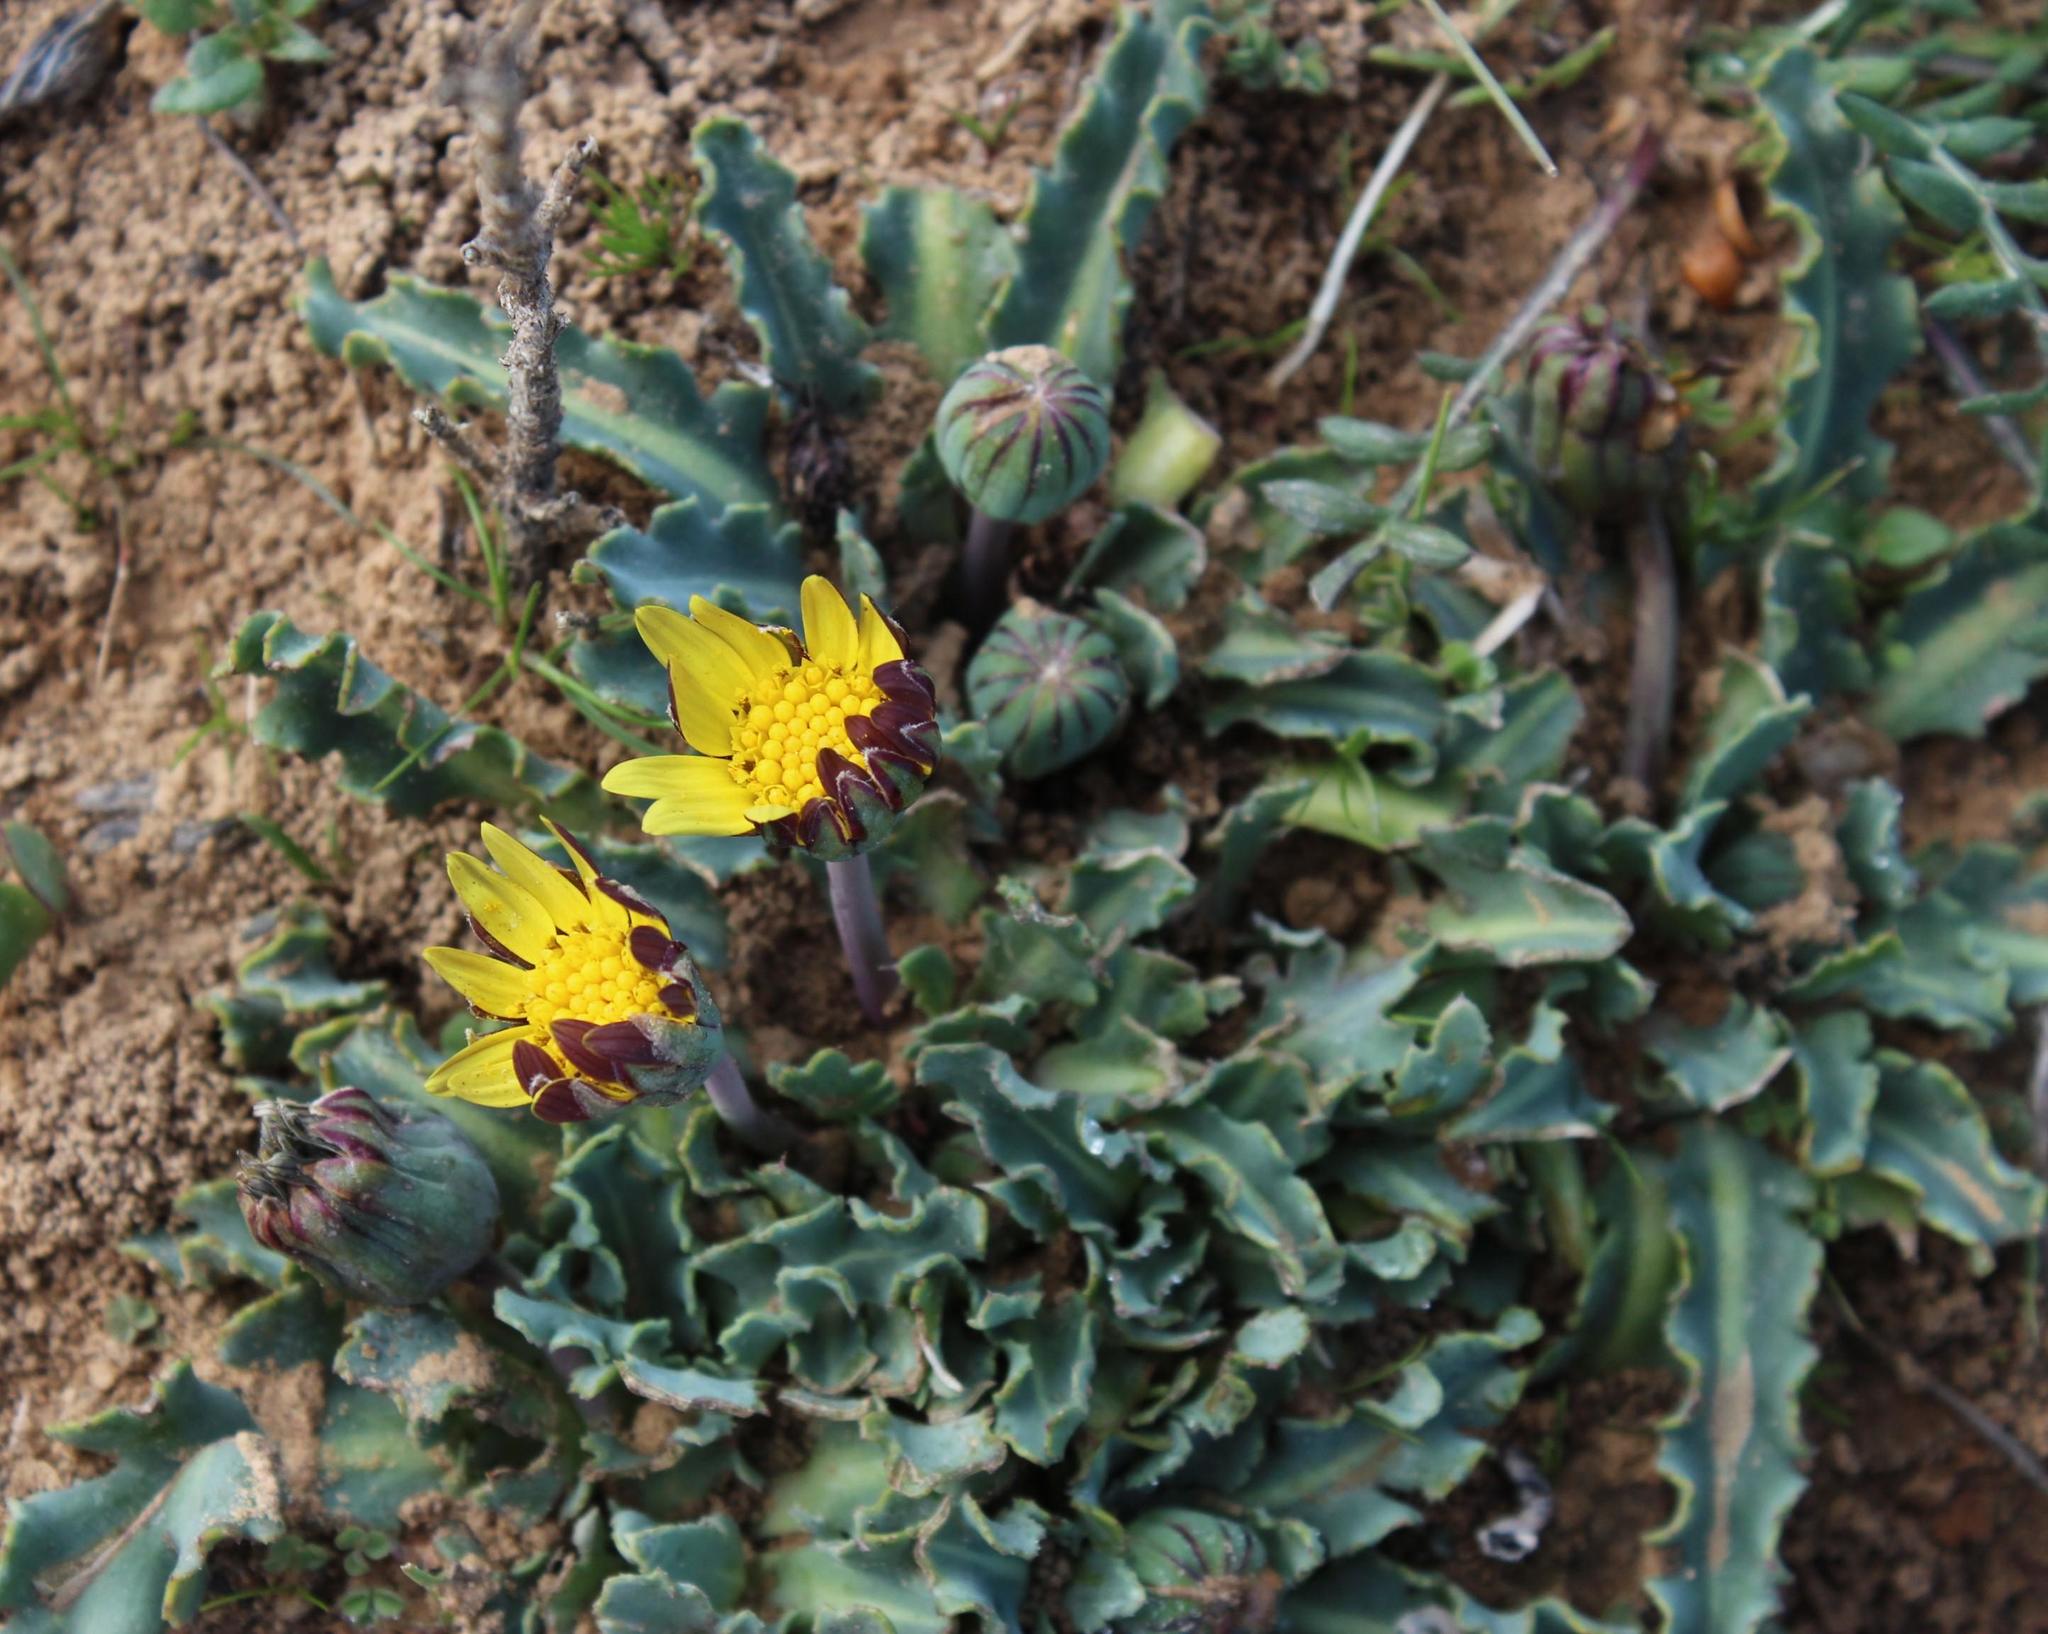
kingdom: Plantae
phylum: Tracheophyta
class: Magnoliopsida
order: Asterales
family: Asteraceae
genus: Othonna
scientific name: Othonna auriculifolia
